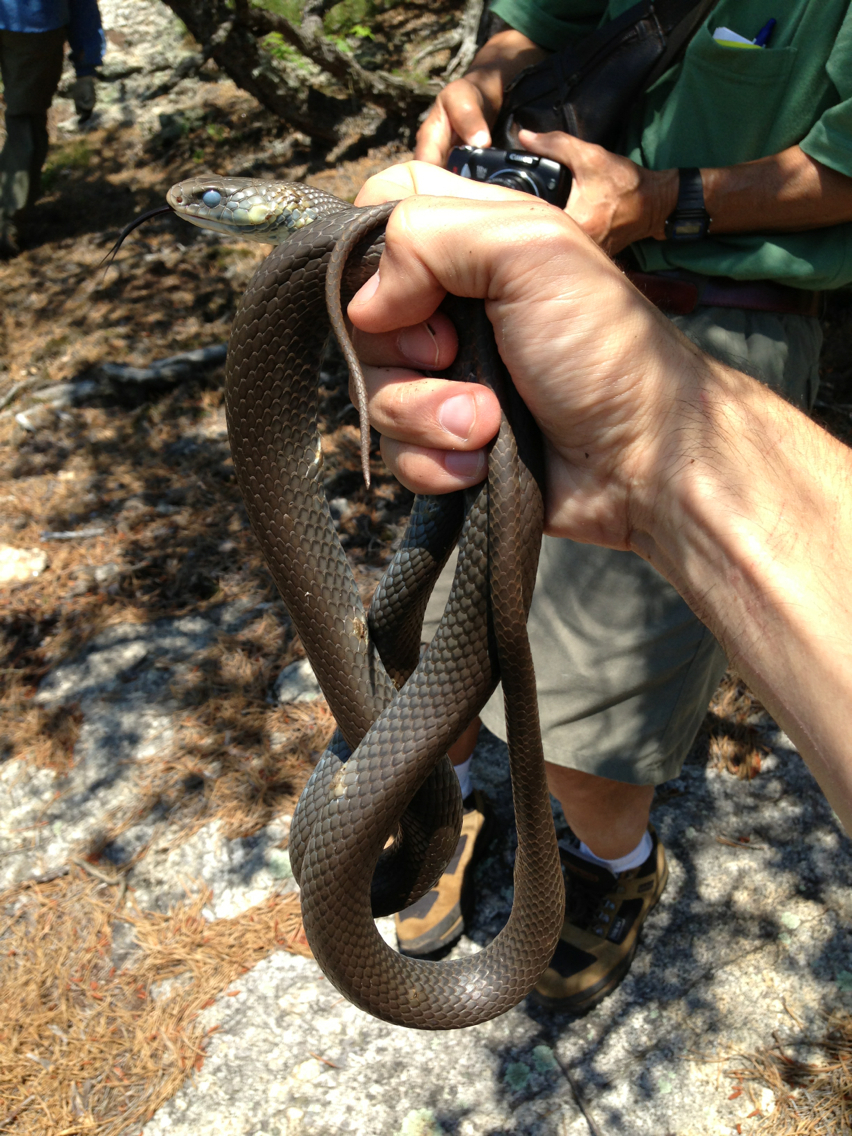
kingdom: Animalia
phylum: Chordata
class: Squamata
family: Colubridae
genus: Coluber
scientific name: Coluber constrictor
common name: Eastern racer
